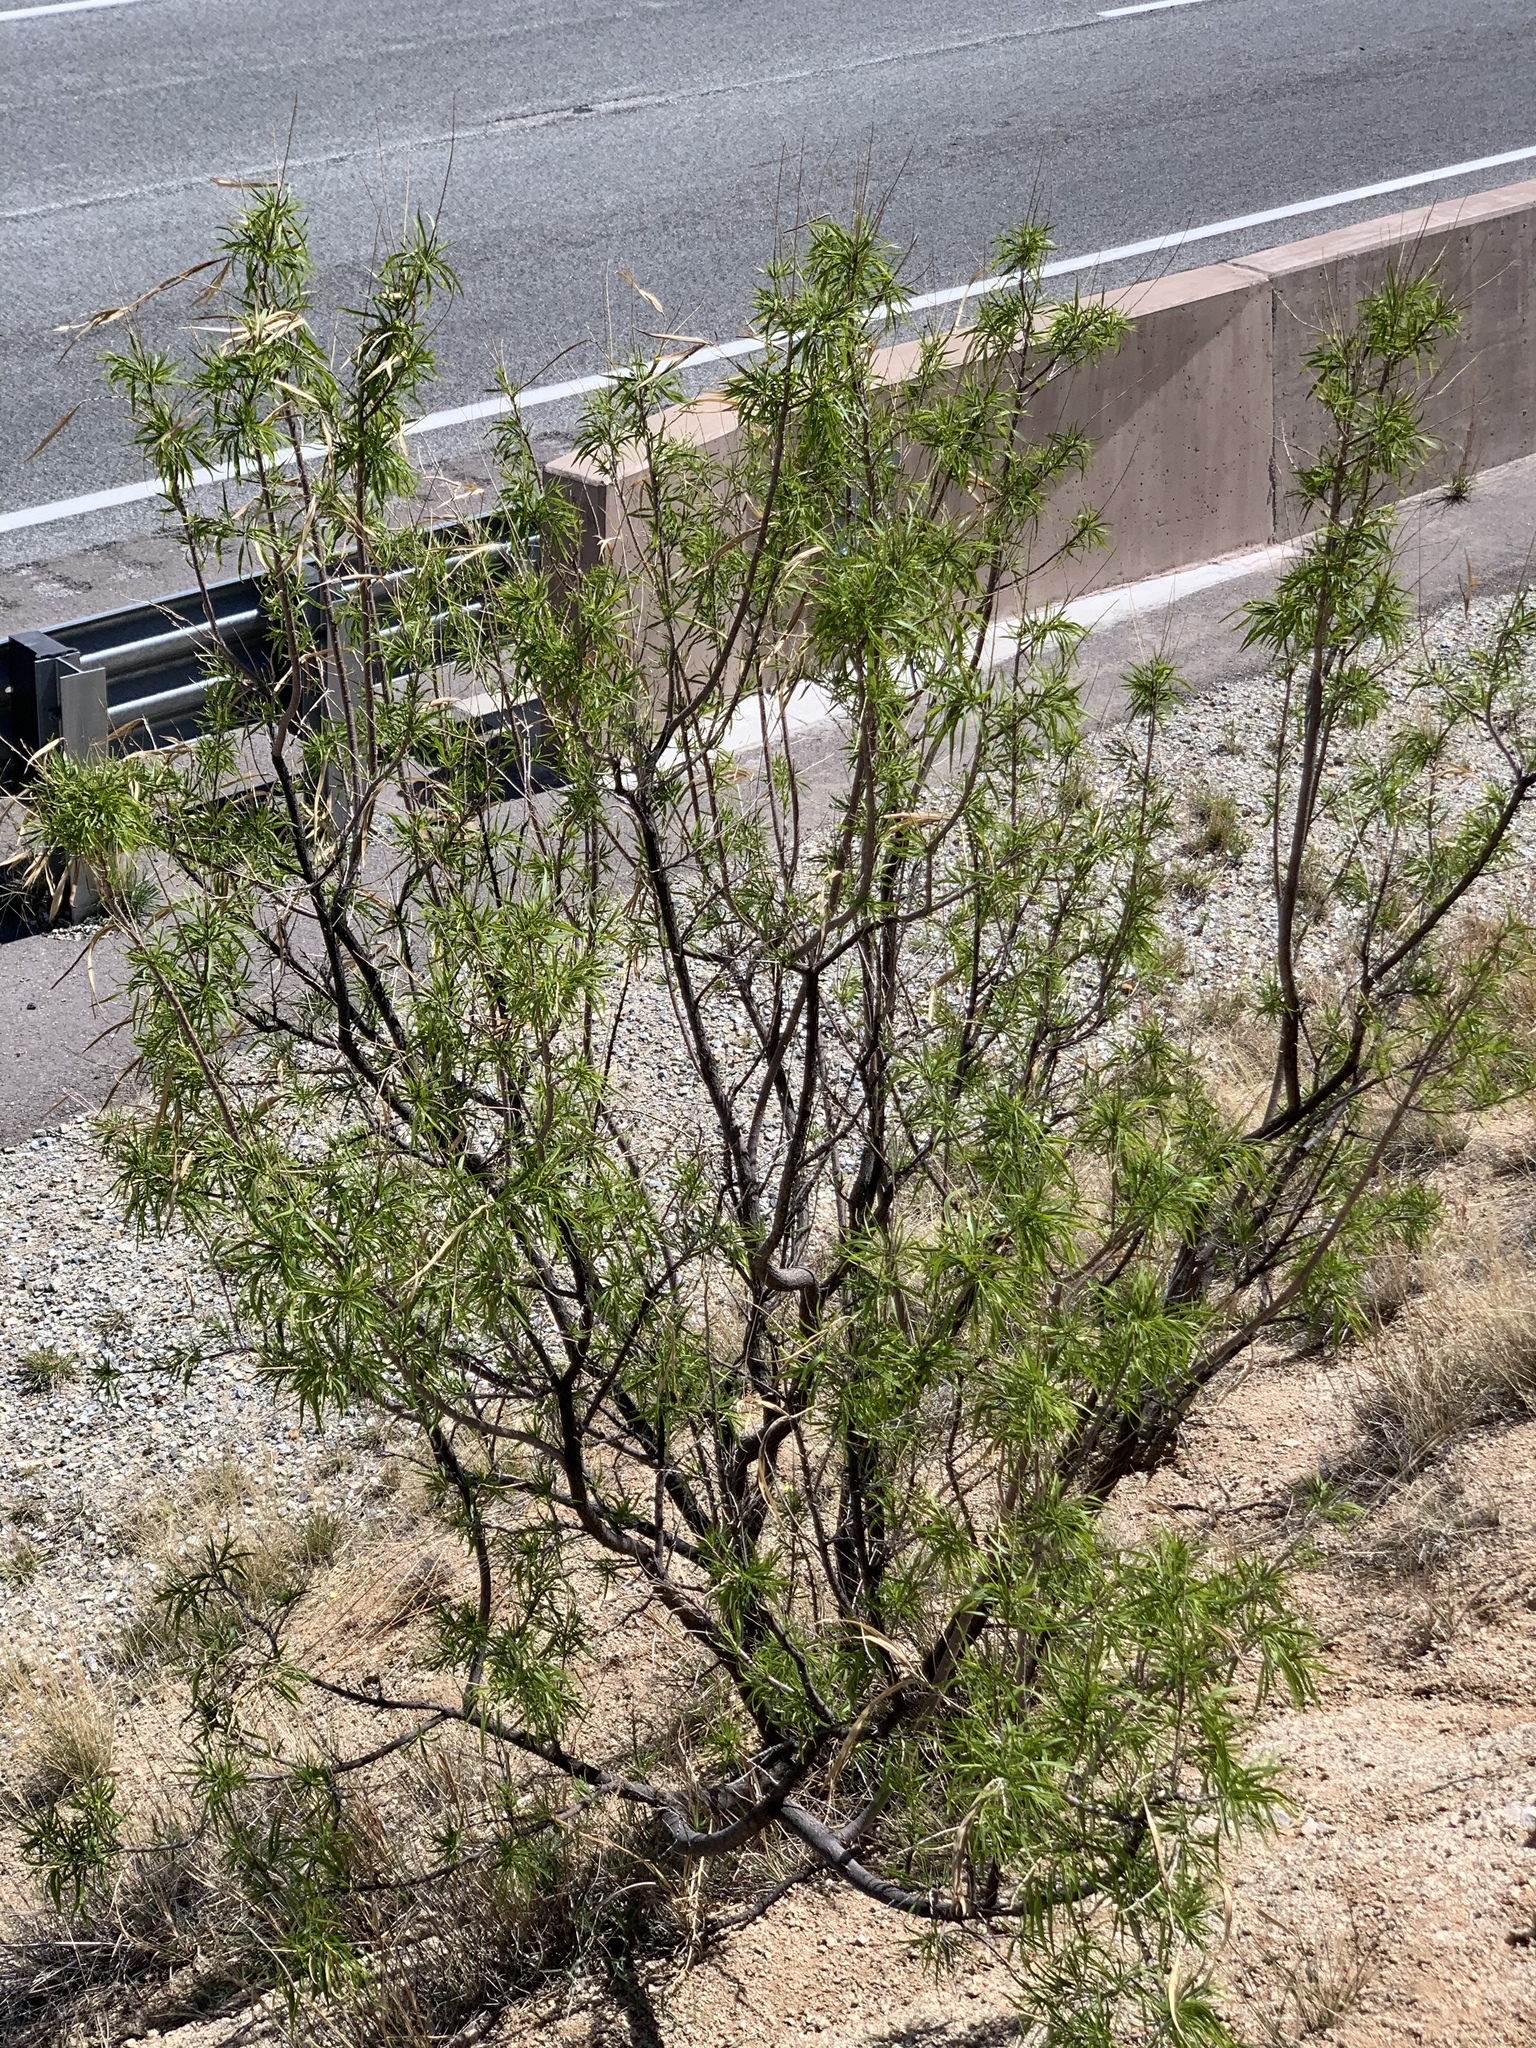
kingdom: Plantae
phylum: Tracheophyta
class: Magnoliopsida
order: Lamiales
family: Bignoniaceae
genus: Chilopsis
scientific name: Chilopsis linearis
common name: Desert-willow
